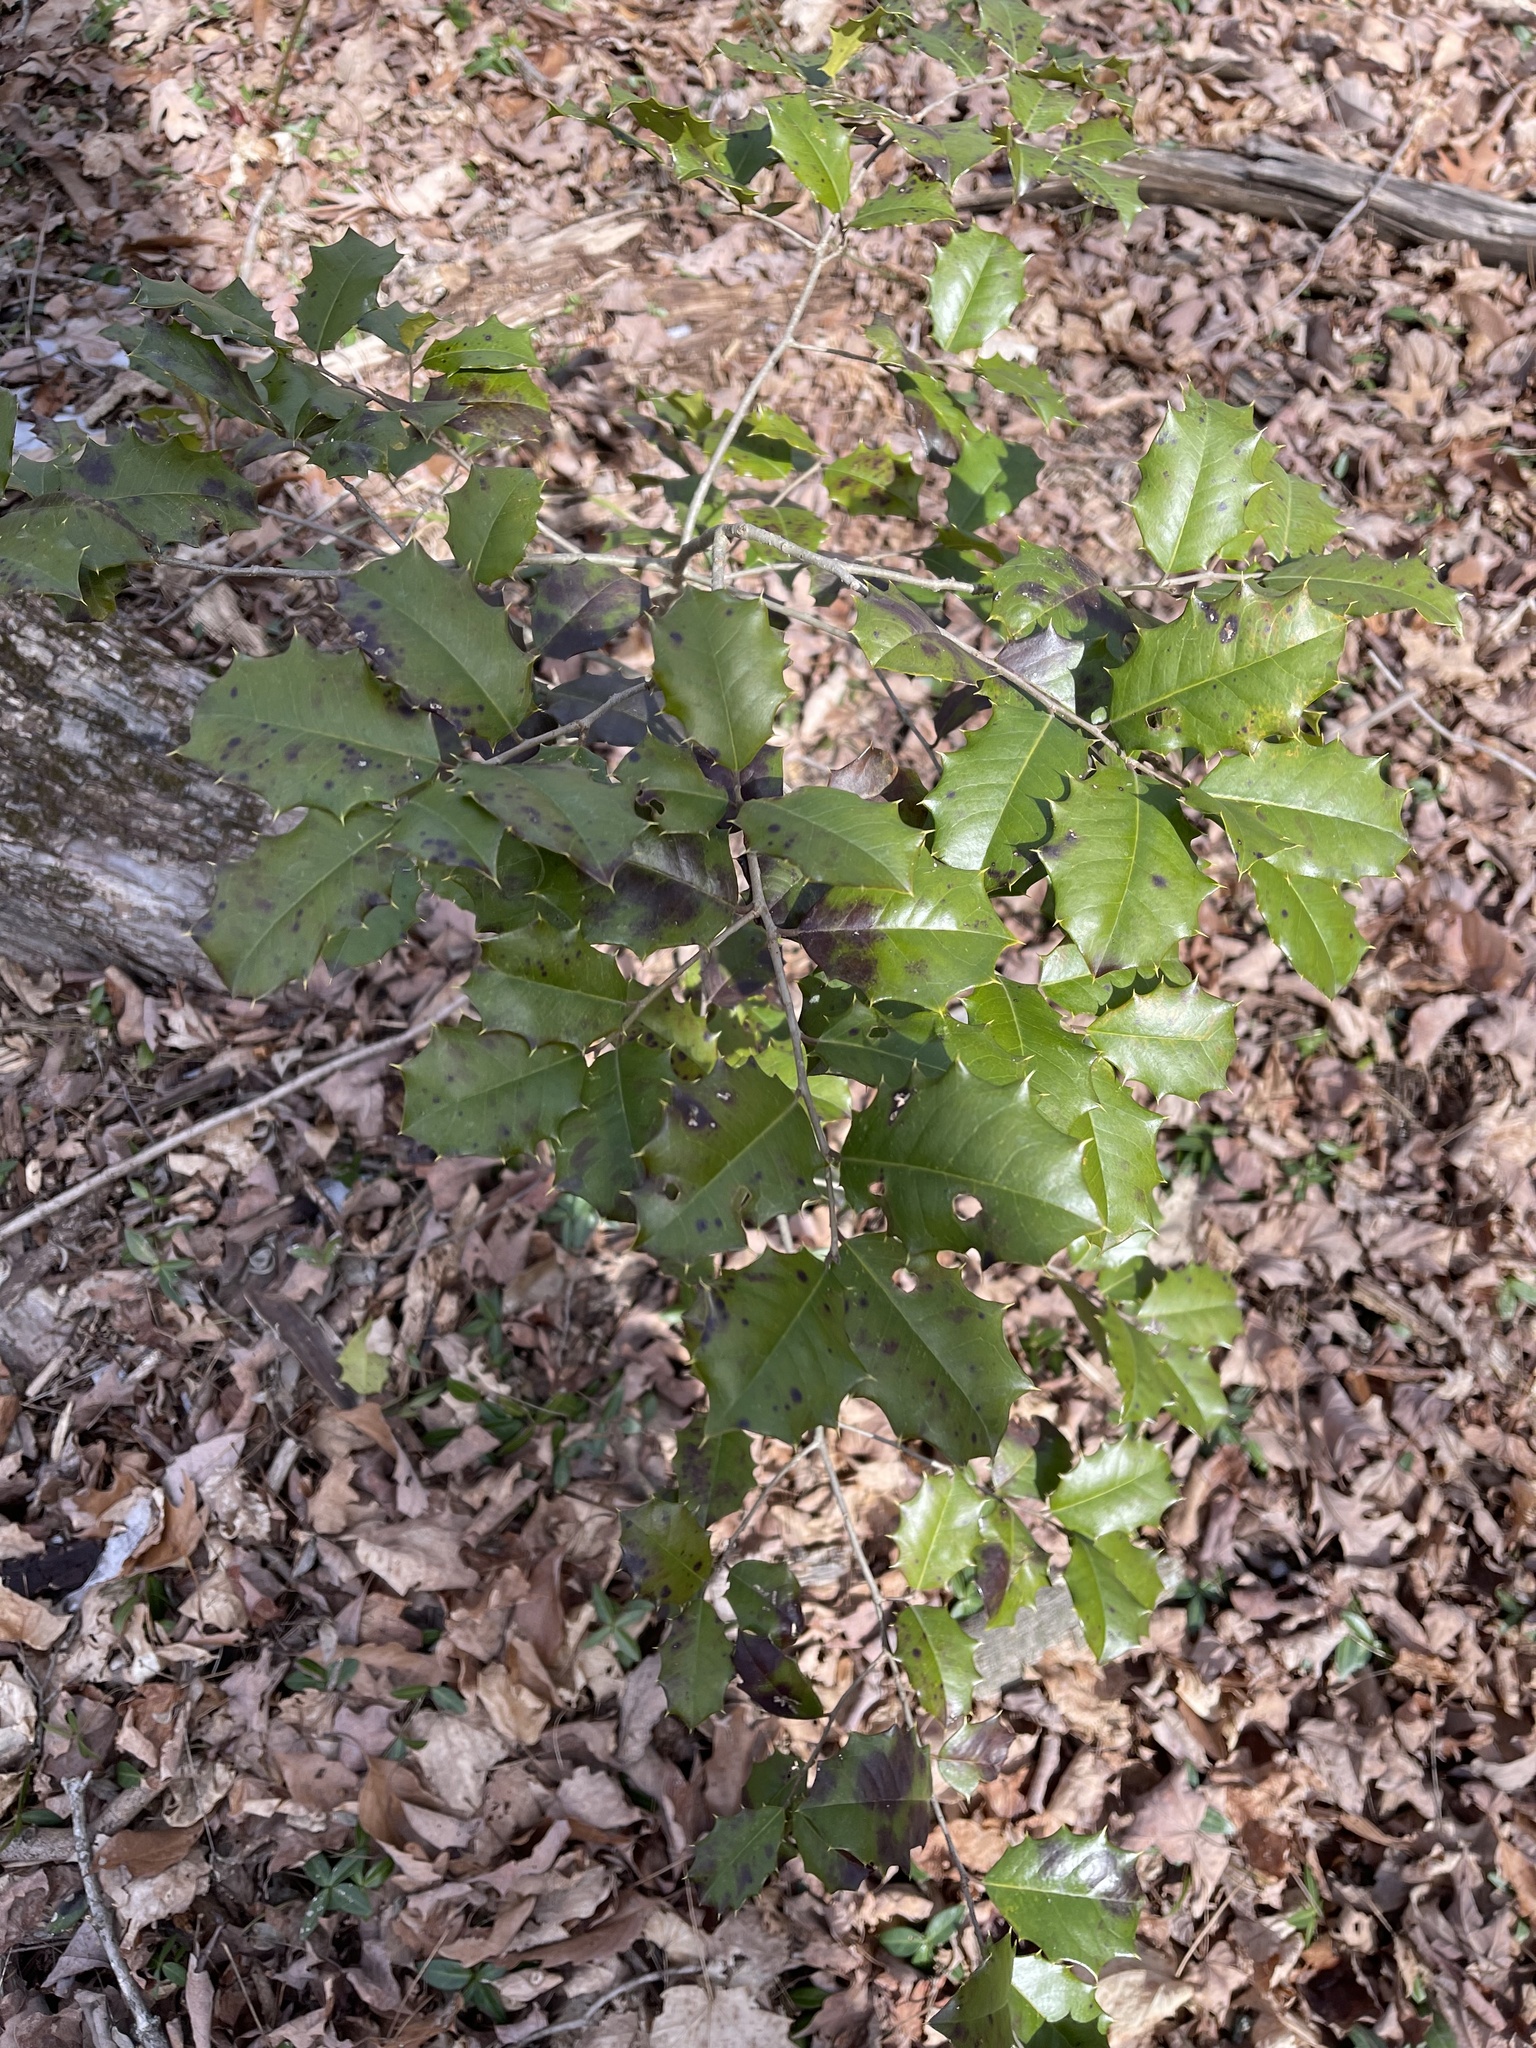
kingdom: Plantae
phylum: Tracheophyta
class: Magnoliopsida
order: Aquifoliales
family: Aquifoliaceae
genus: Ilex
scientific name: Ilex opaca
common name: American holly
